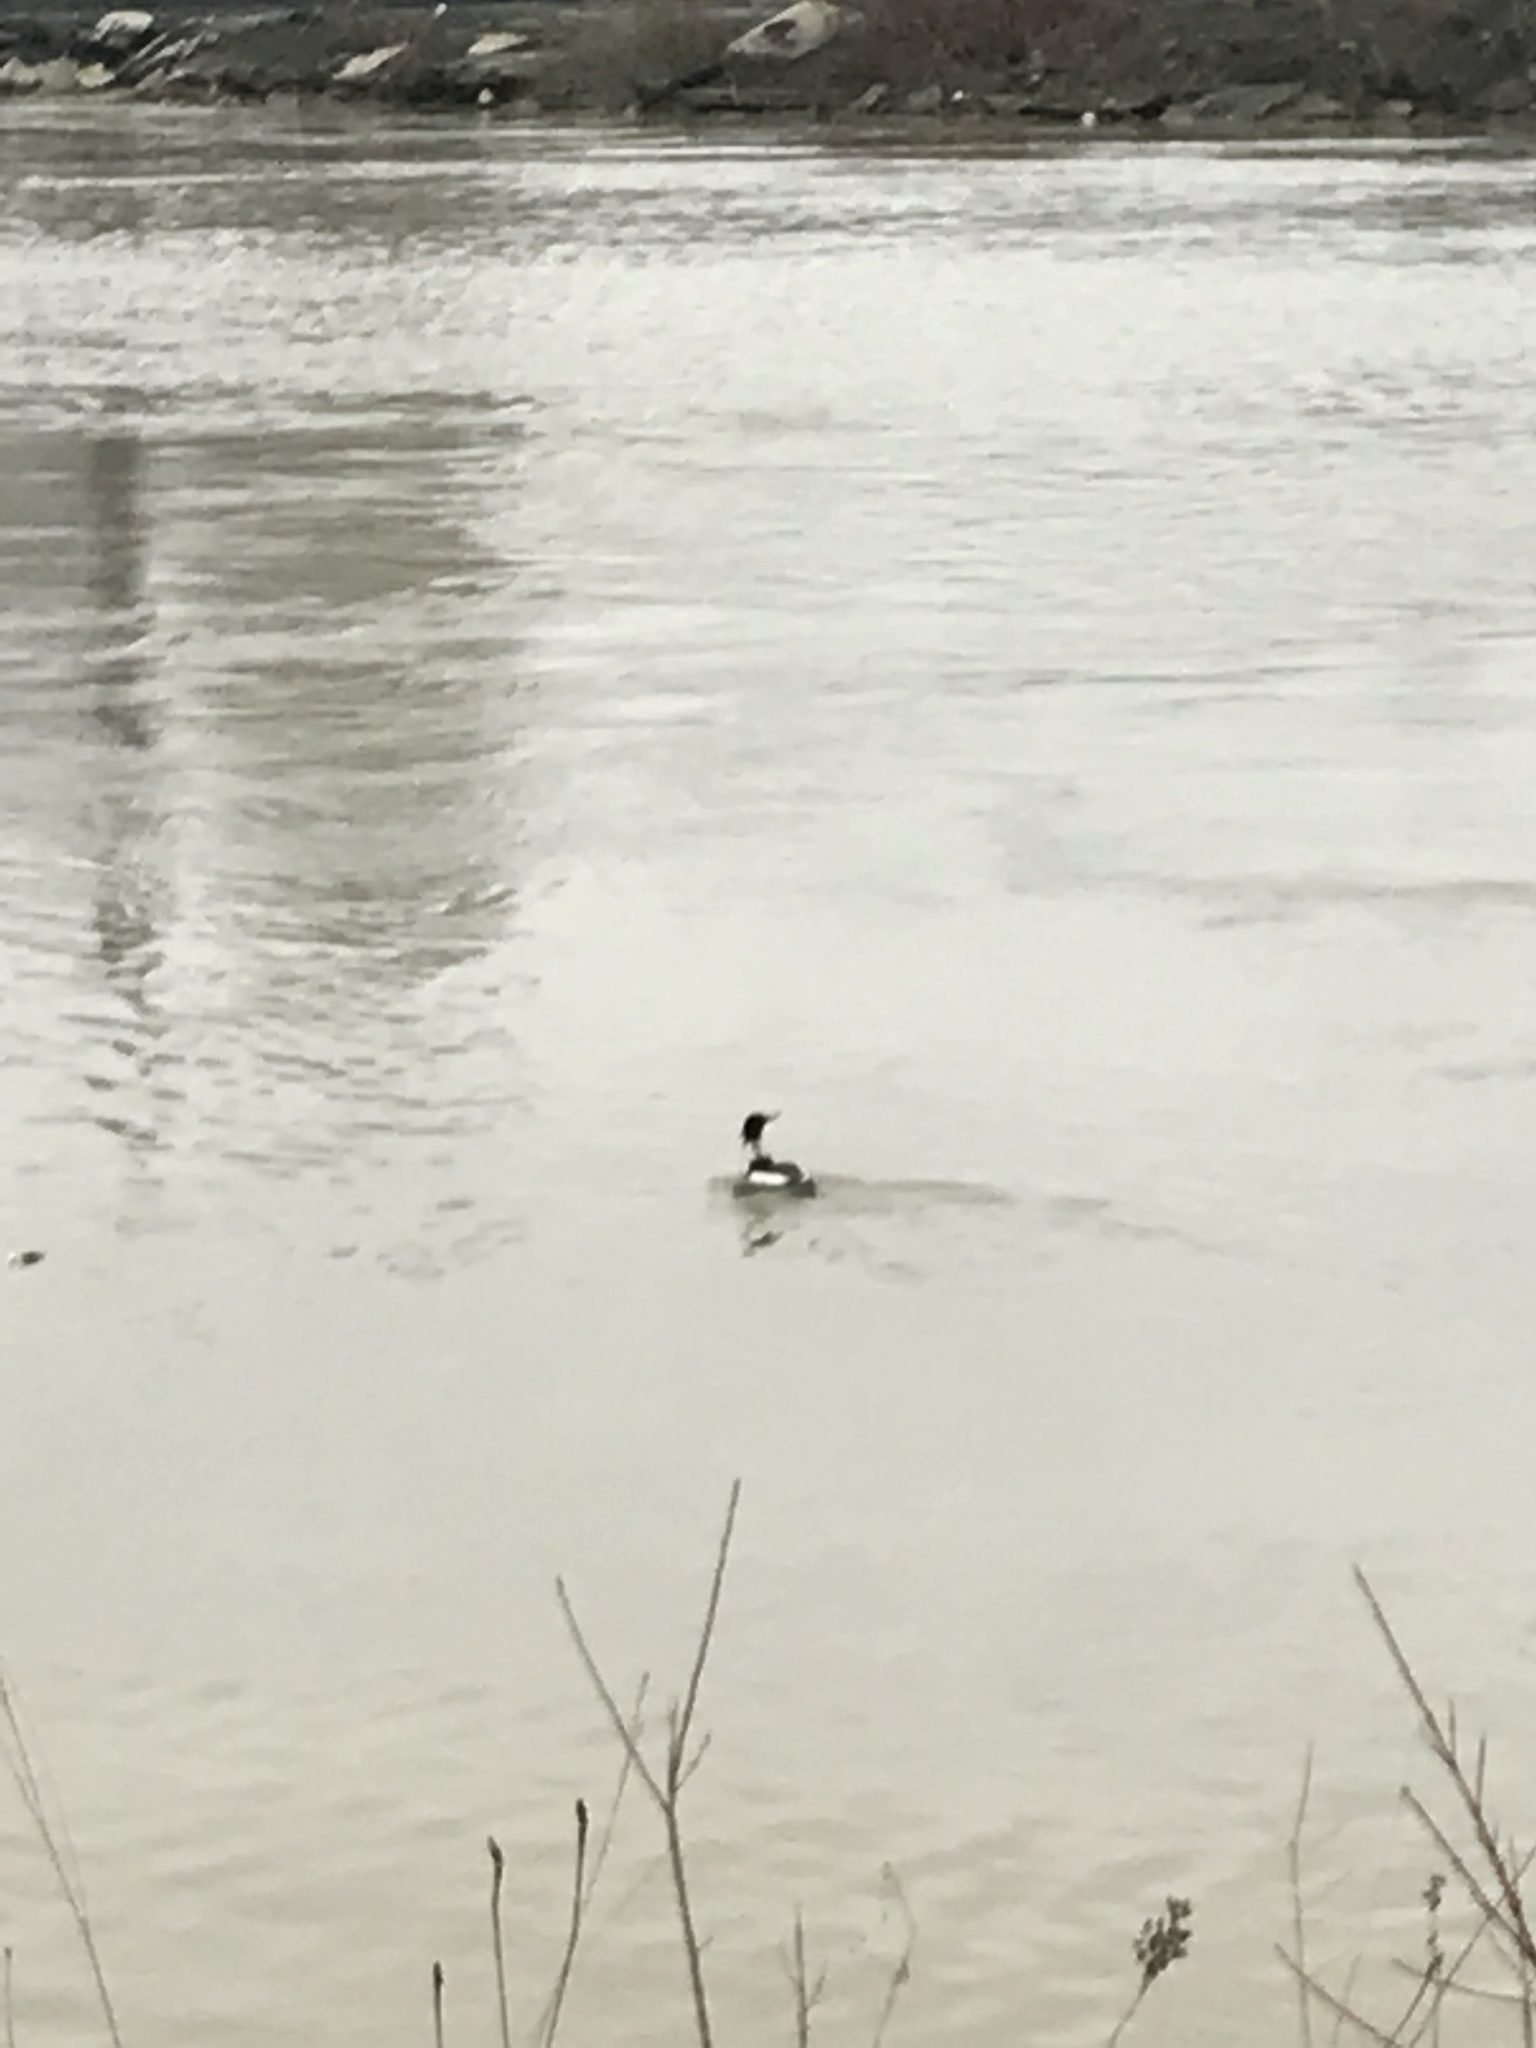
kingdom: Animalia
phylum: Chordata
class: Aves
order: Anseriformes
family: Anatidae
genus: Mergus
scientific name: Mergus serrator
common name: Red-breasted merganser
